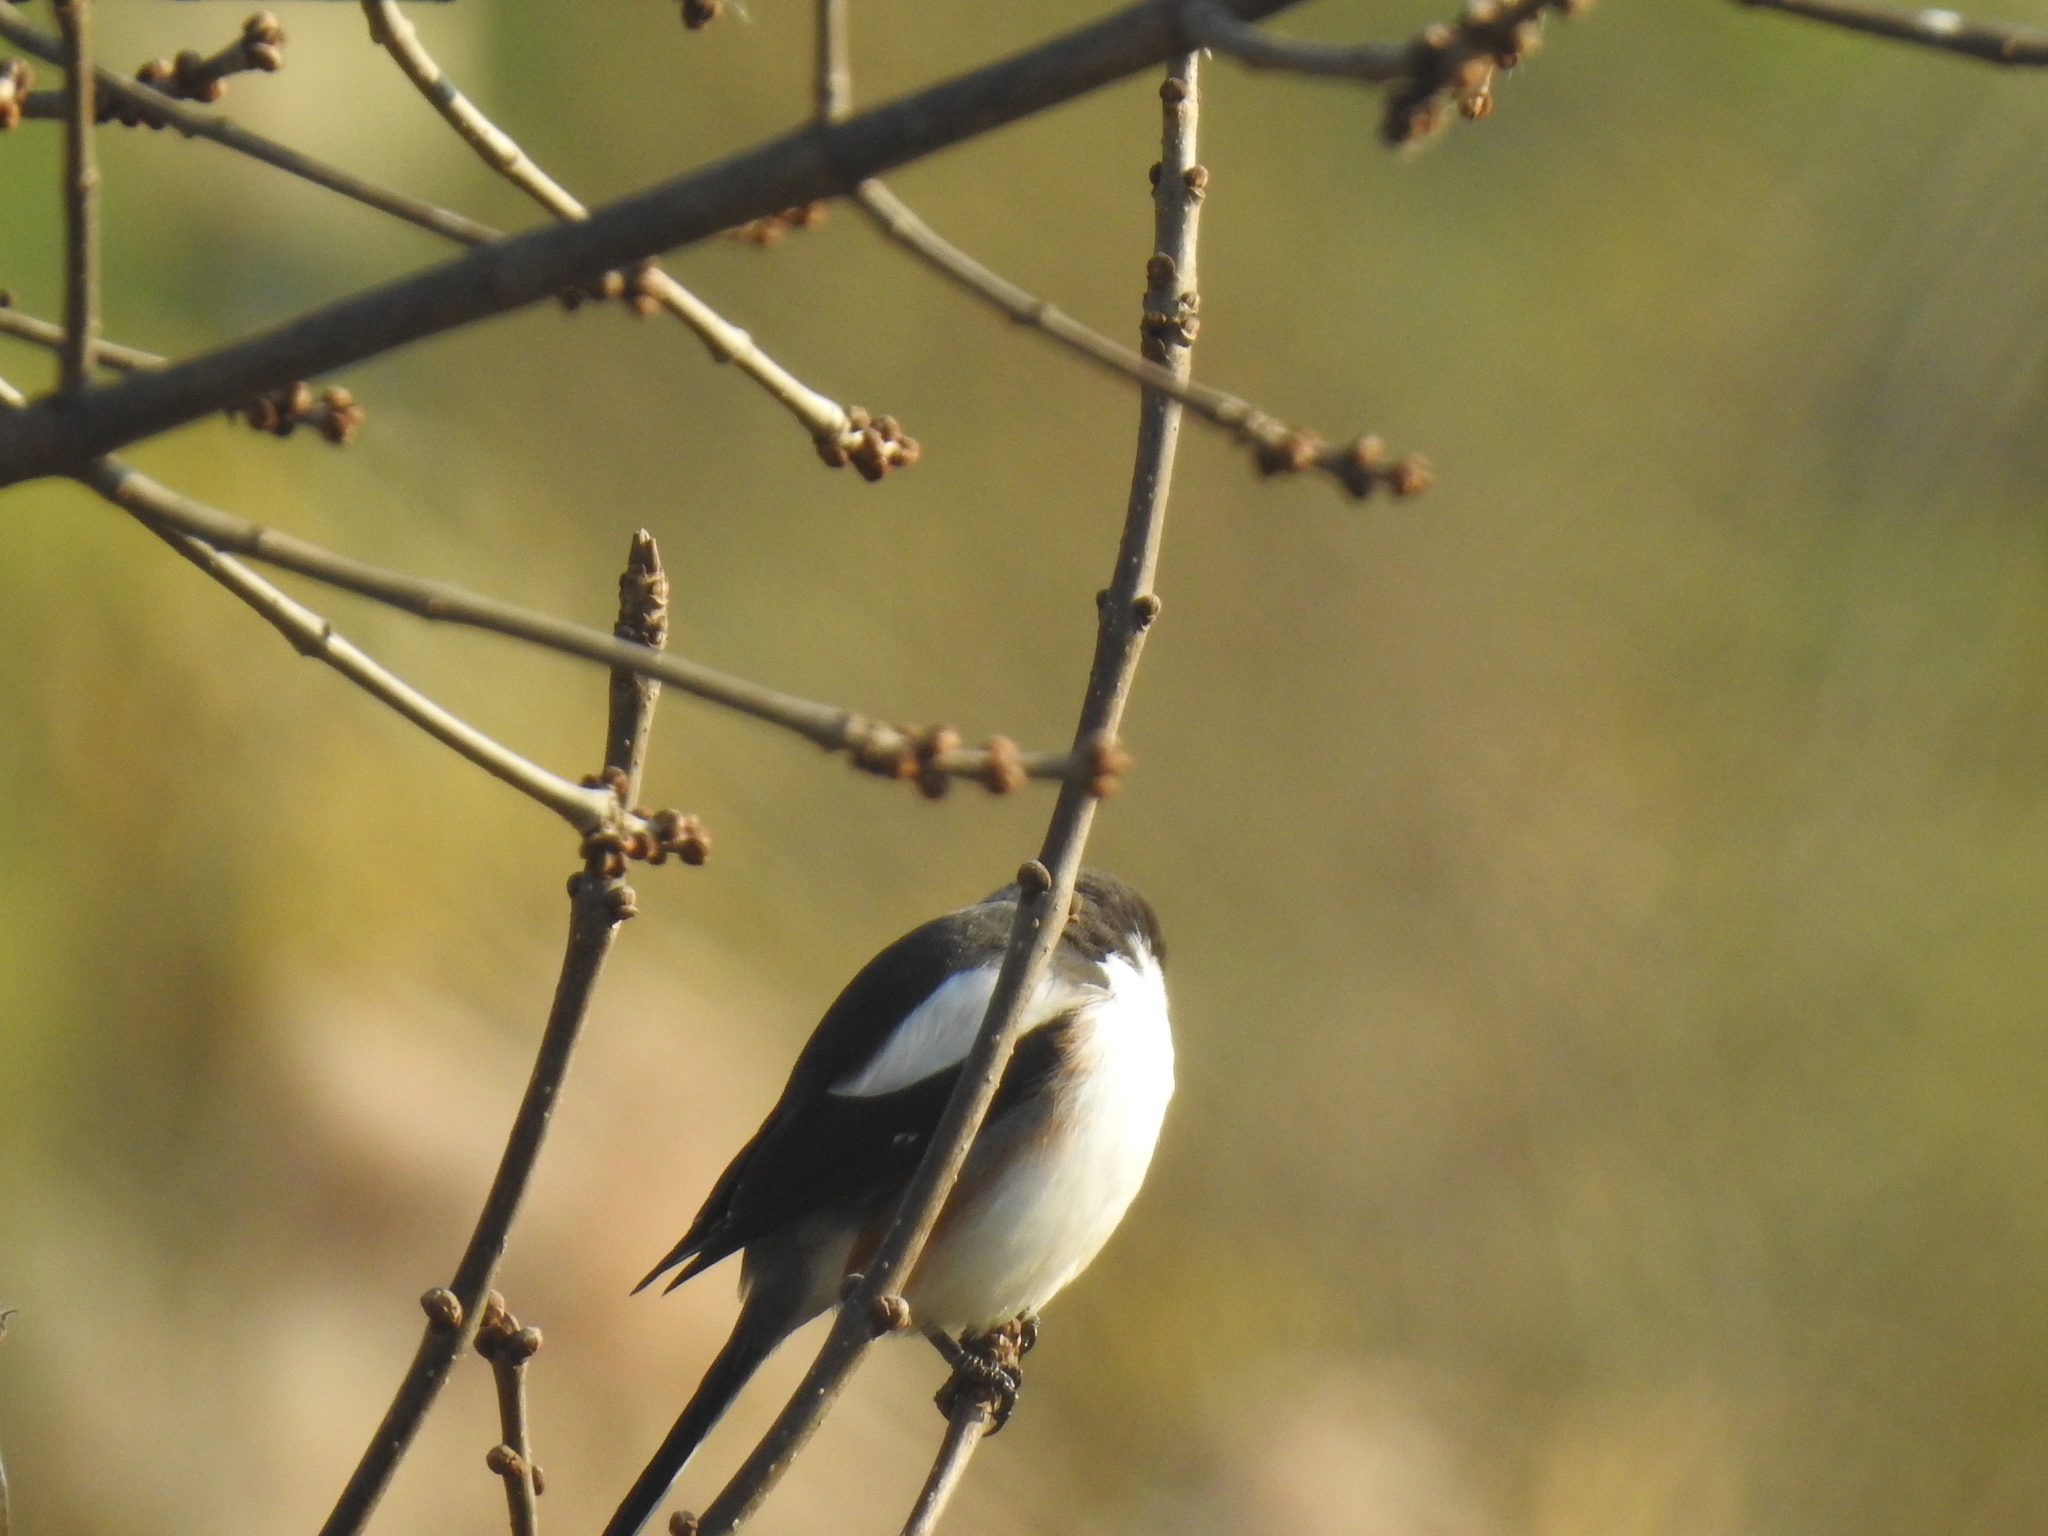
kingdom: Animalia
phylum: Chordata
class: Aves
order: Passeriformes
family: Laniidae
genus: Lanius
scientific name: Lanius collaris
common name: Southern fiscal
